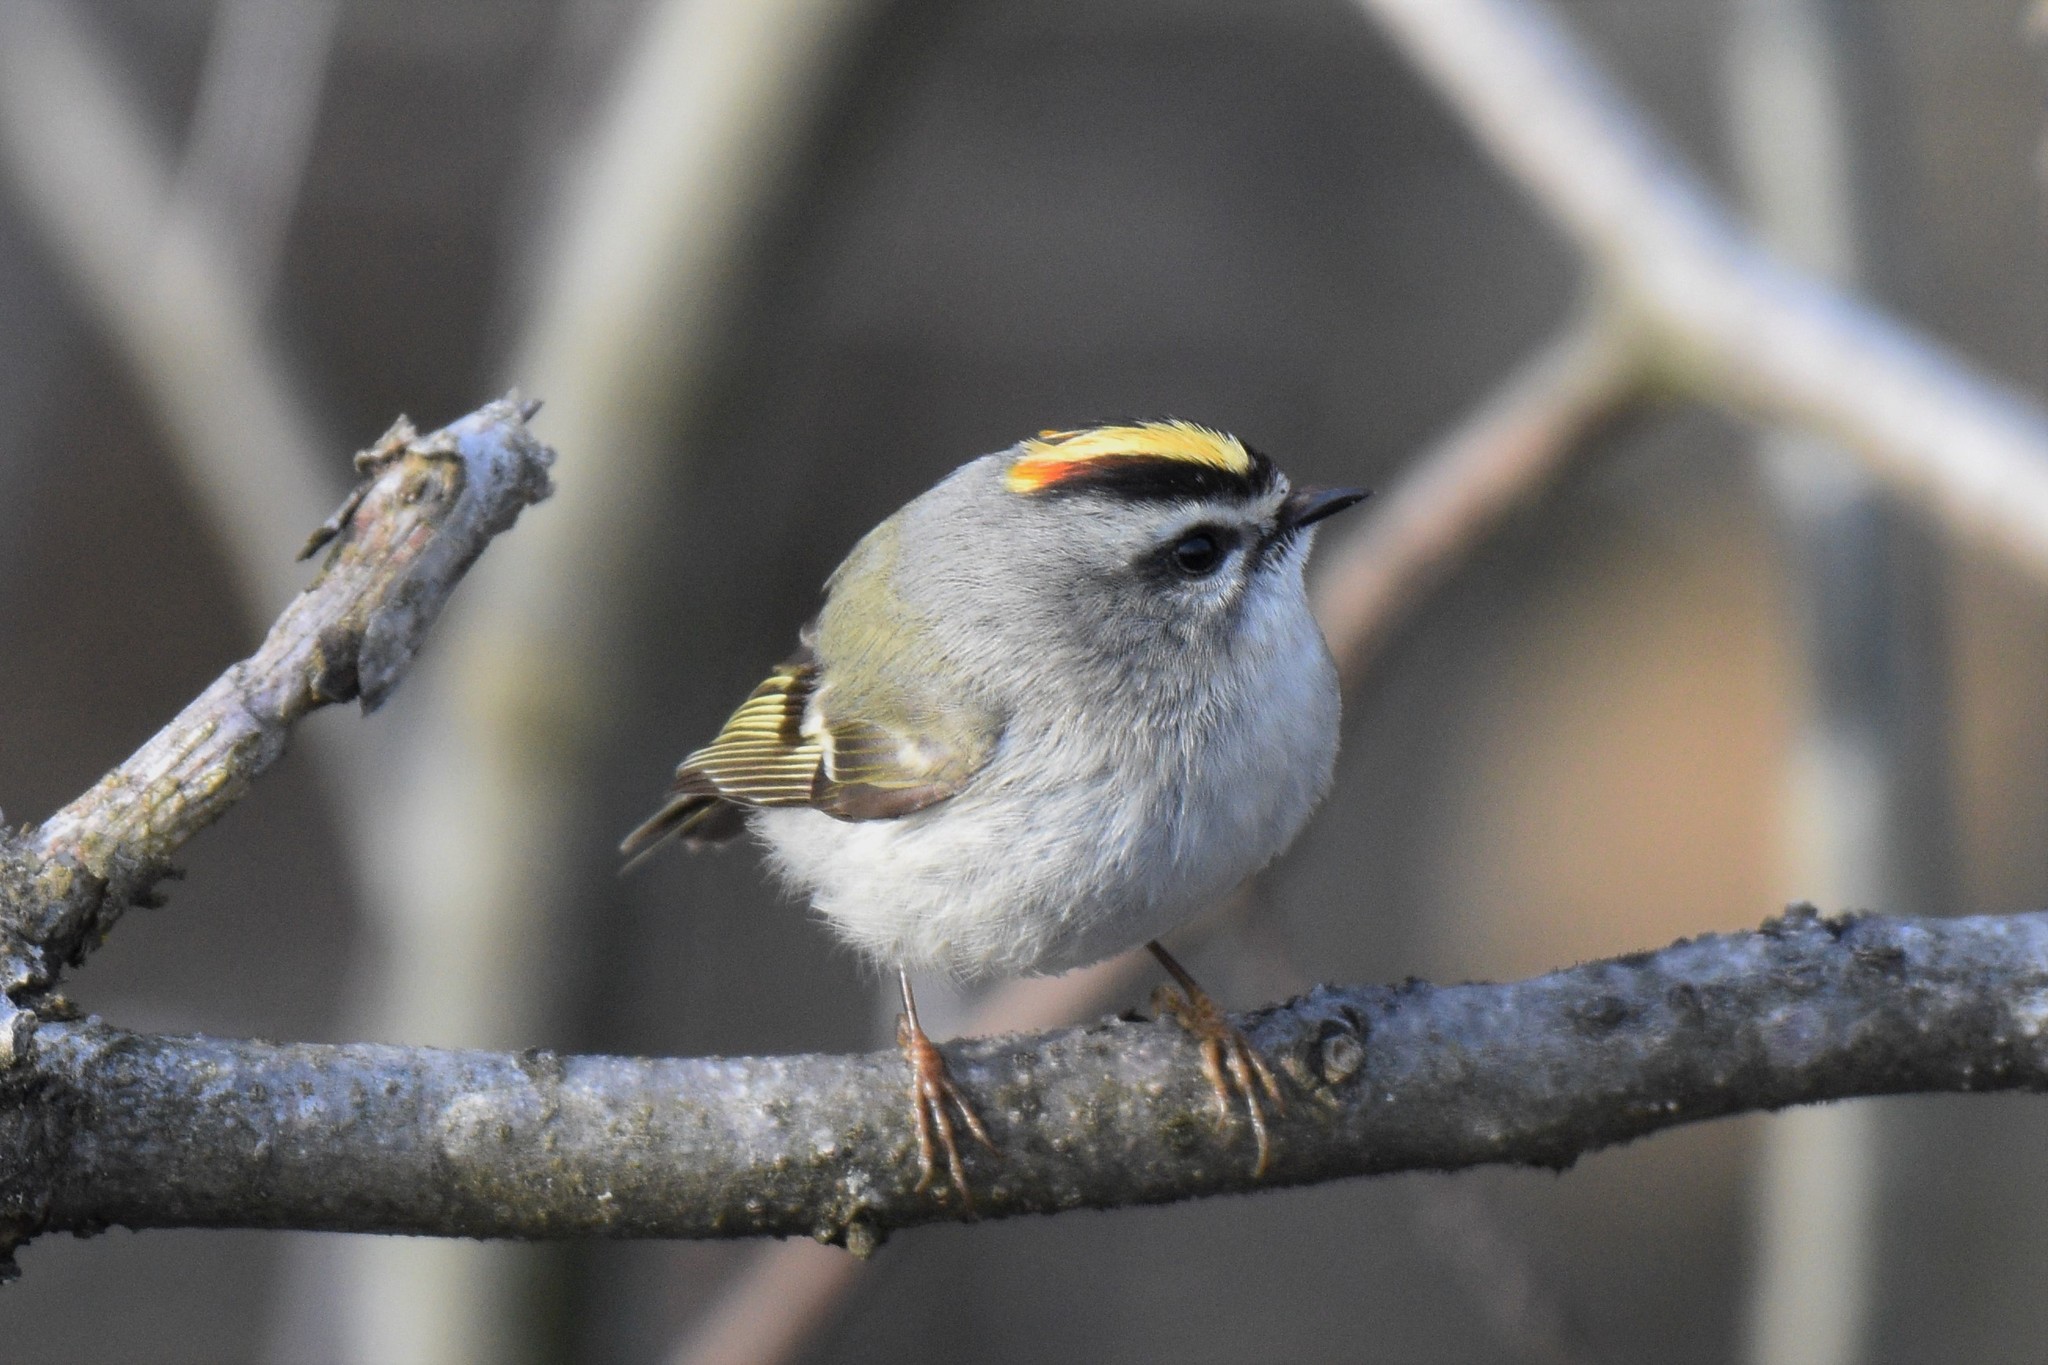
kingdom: Animalia
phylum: Chordata
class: Aves
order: Passeriformes
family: Regulidae
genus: Regulus
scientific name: Regulus satrapa
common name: Golden-crowned kinglet
